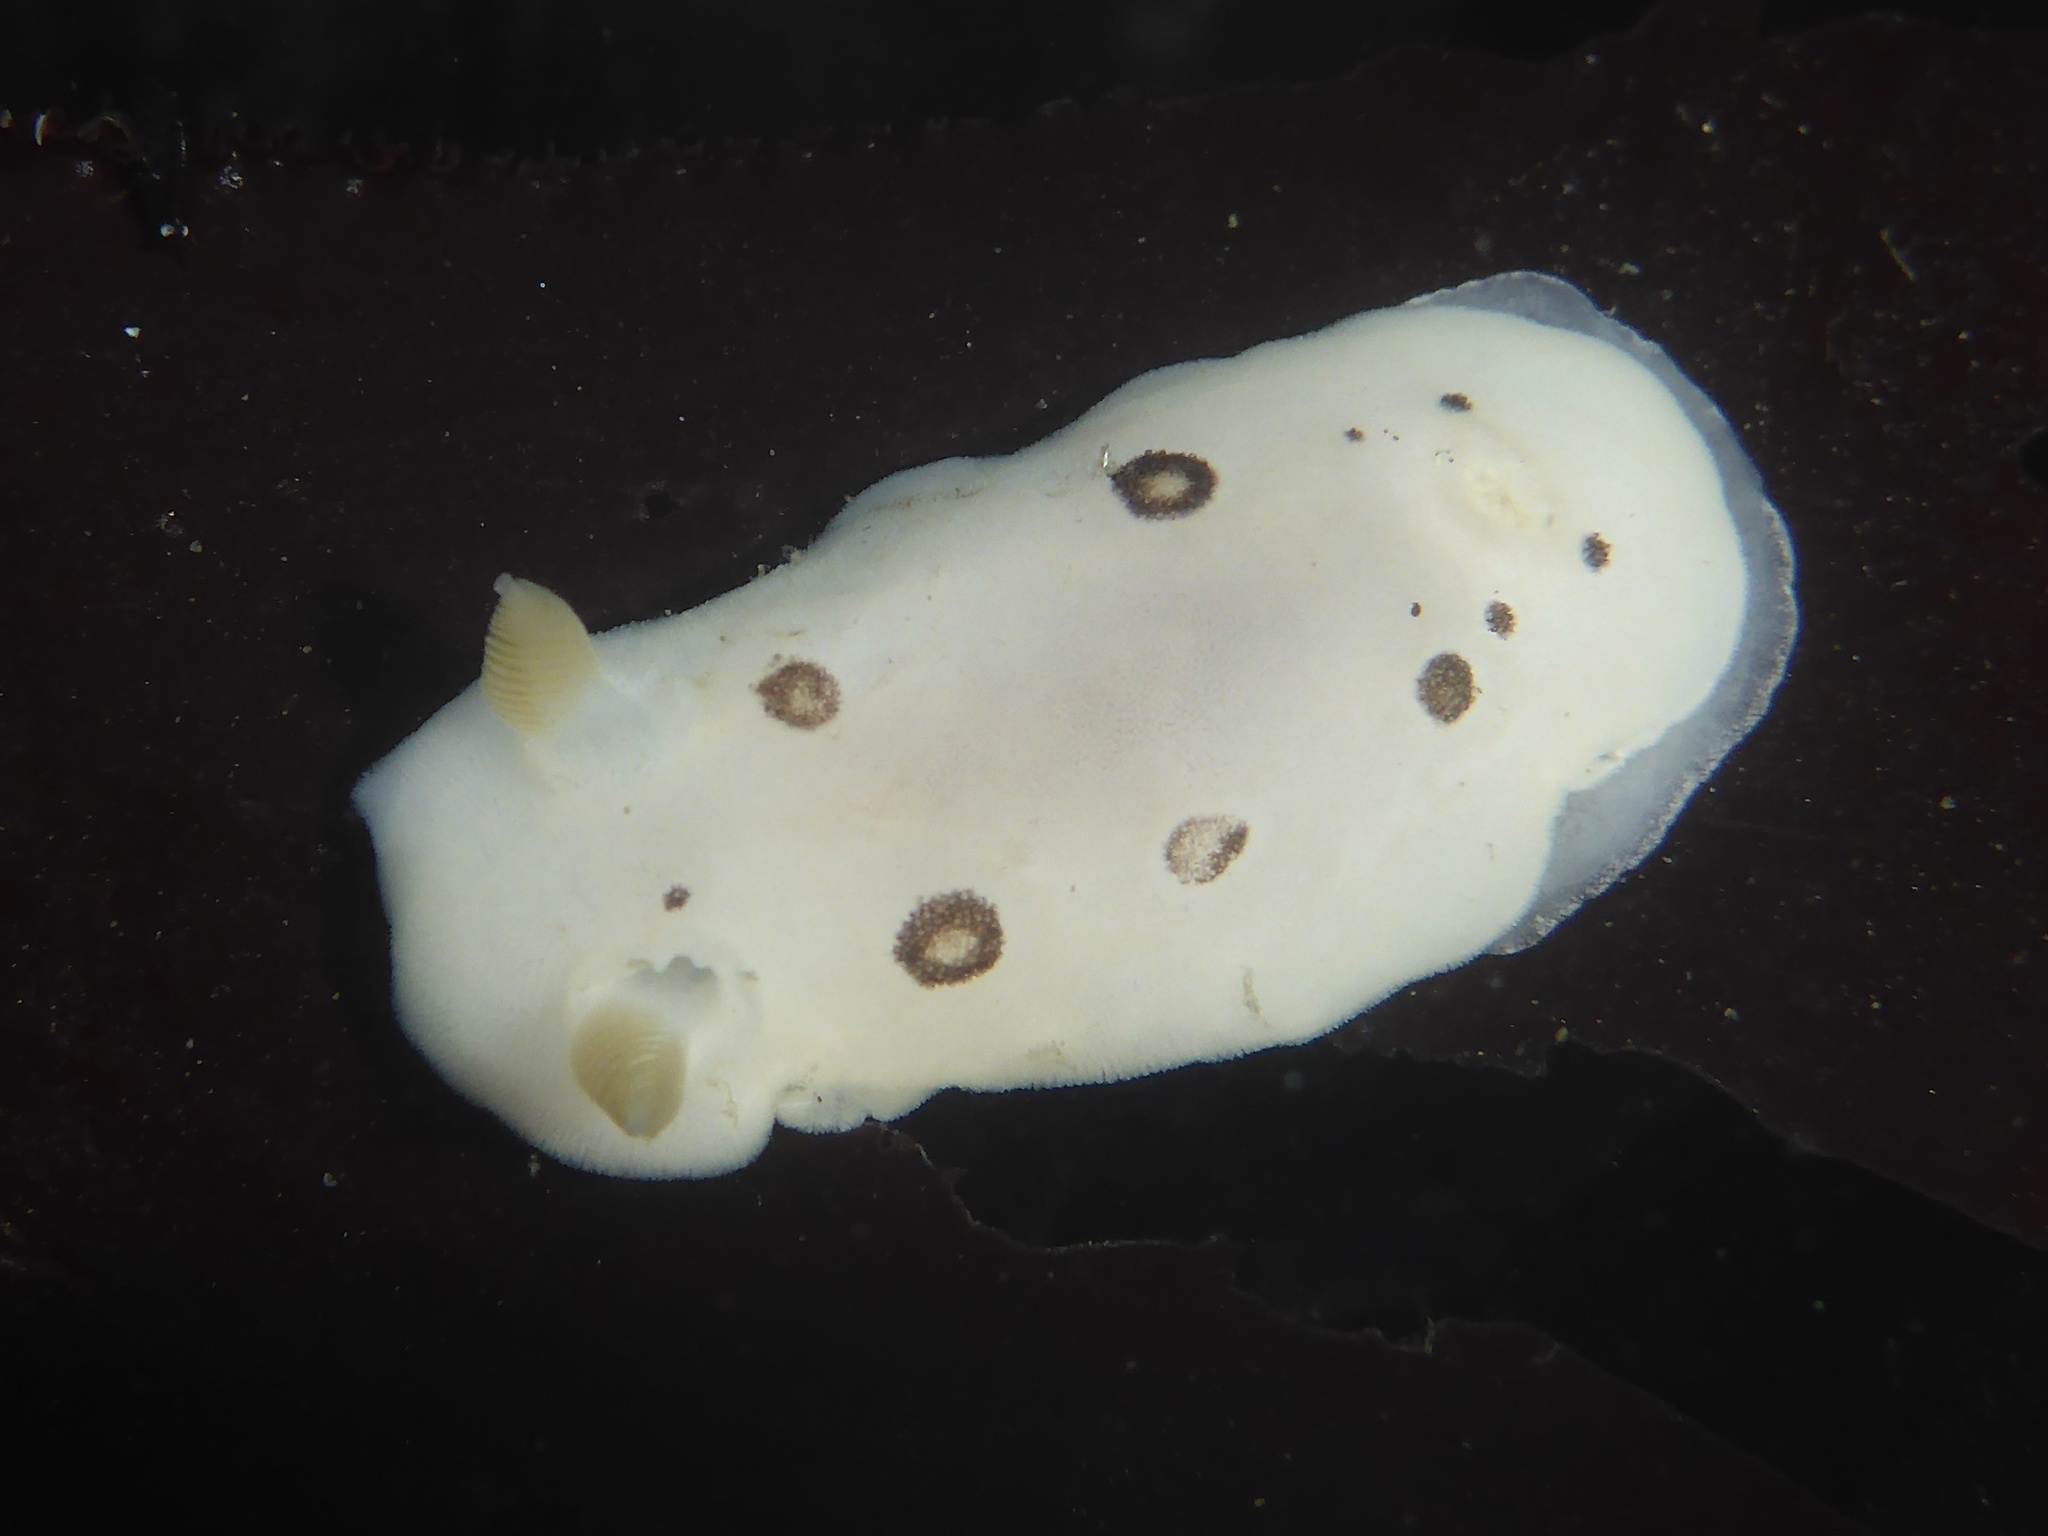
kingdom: Animalia
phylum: Mollusca
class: Gastropoda
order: Nudibranchia
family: Discodorididae
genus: Diaulula
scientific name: Diaulula sandiegensis
